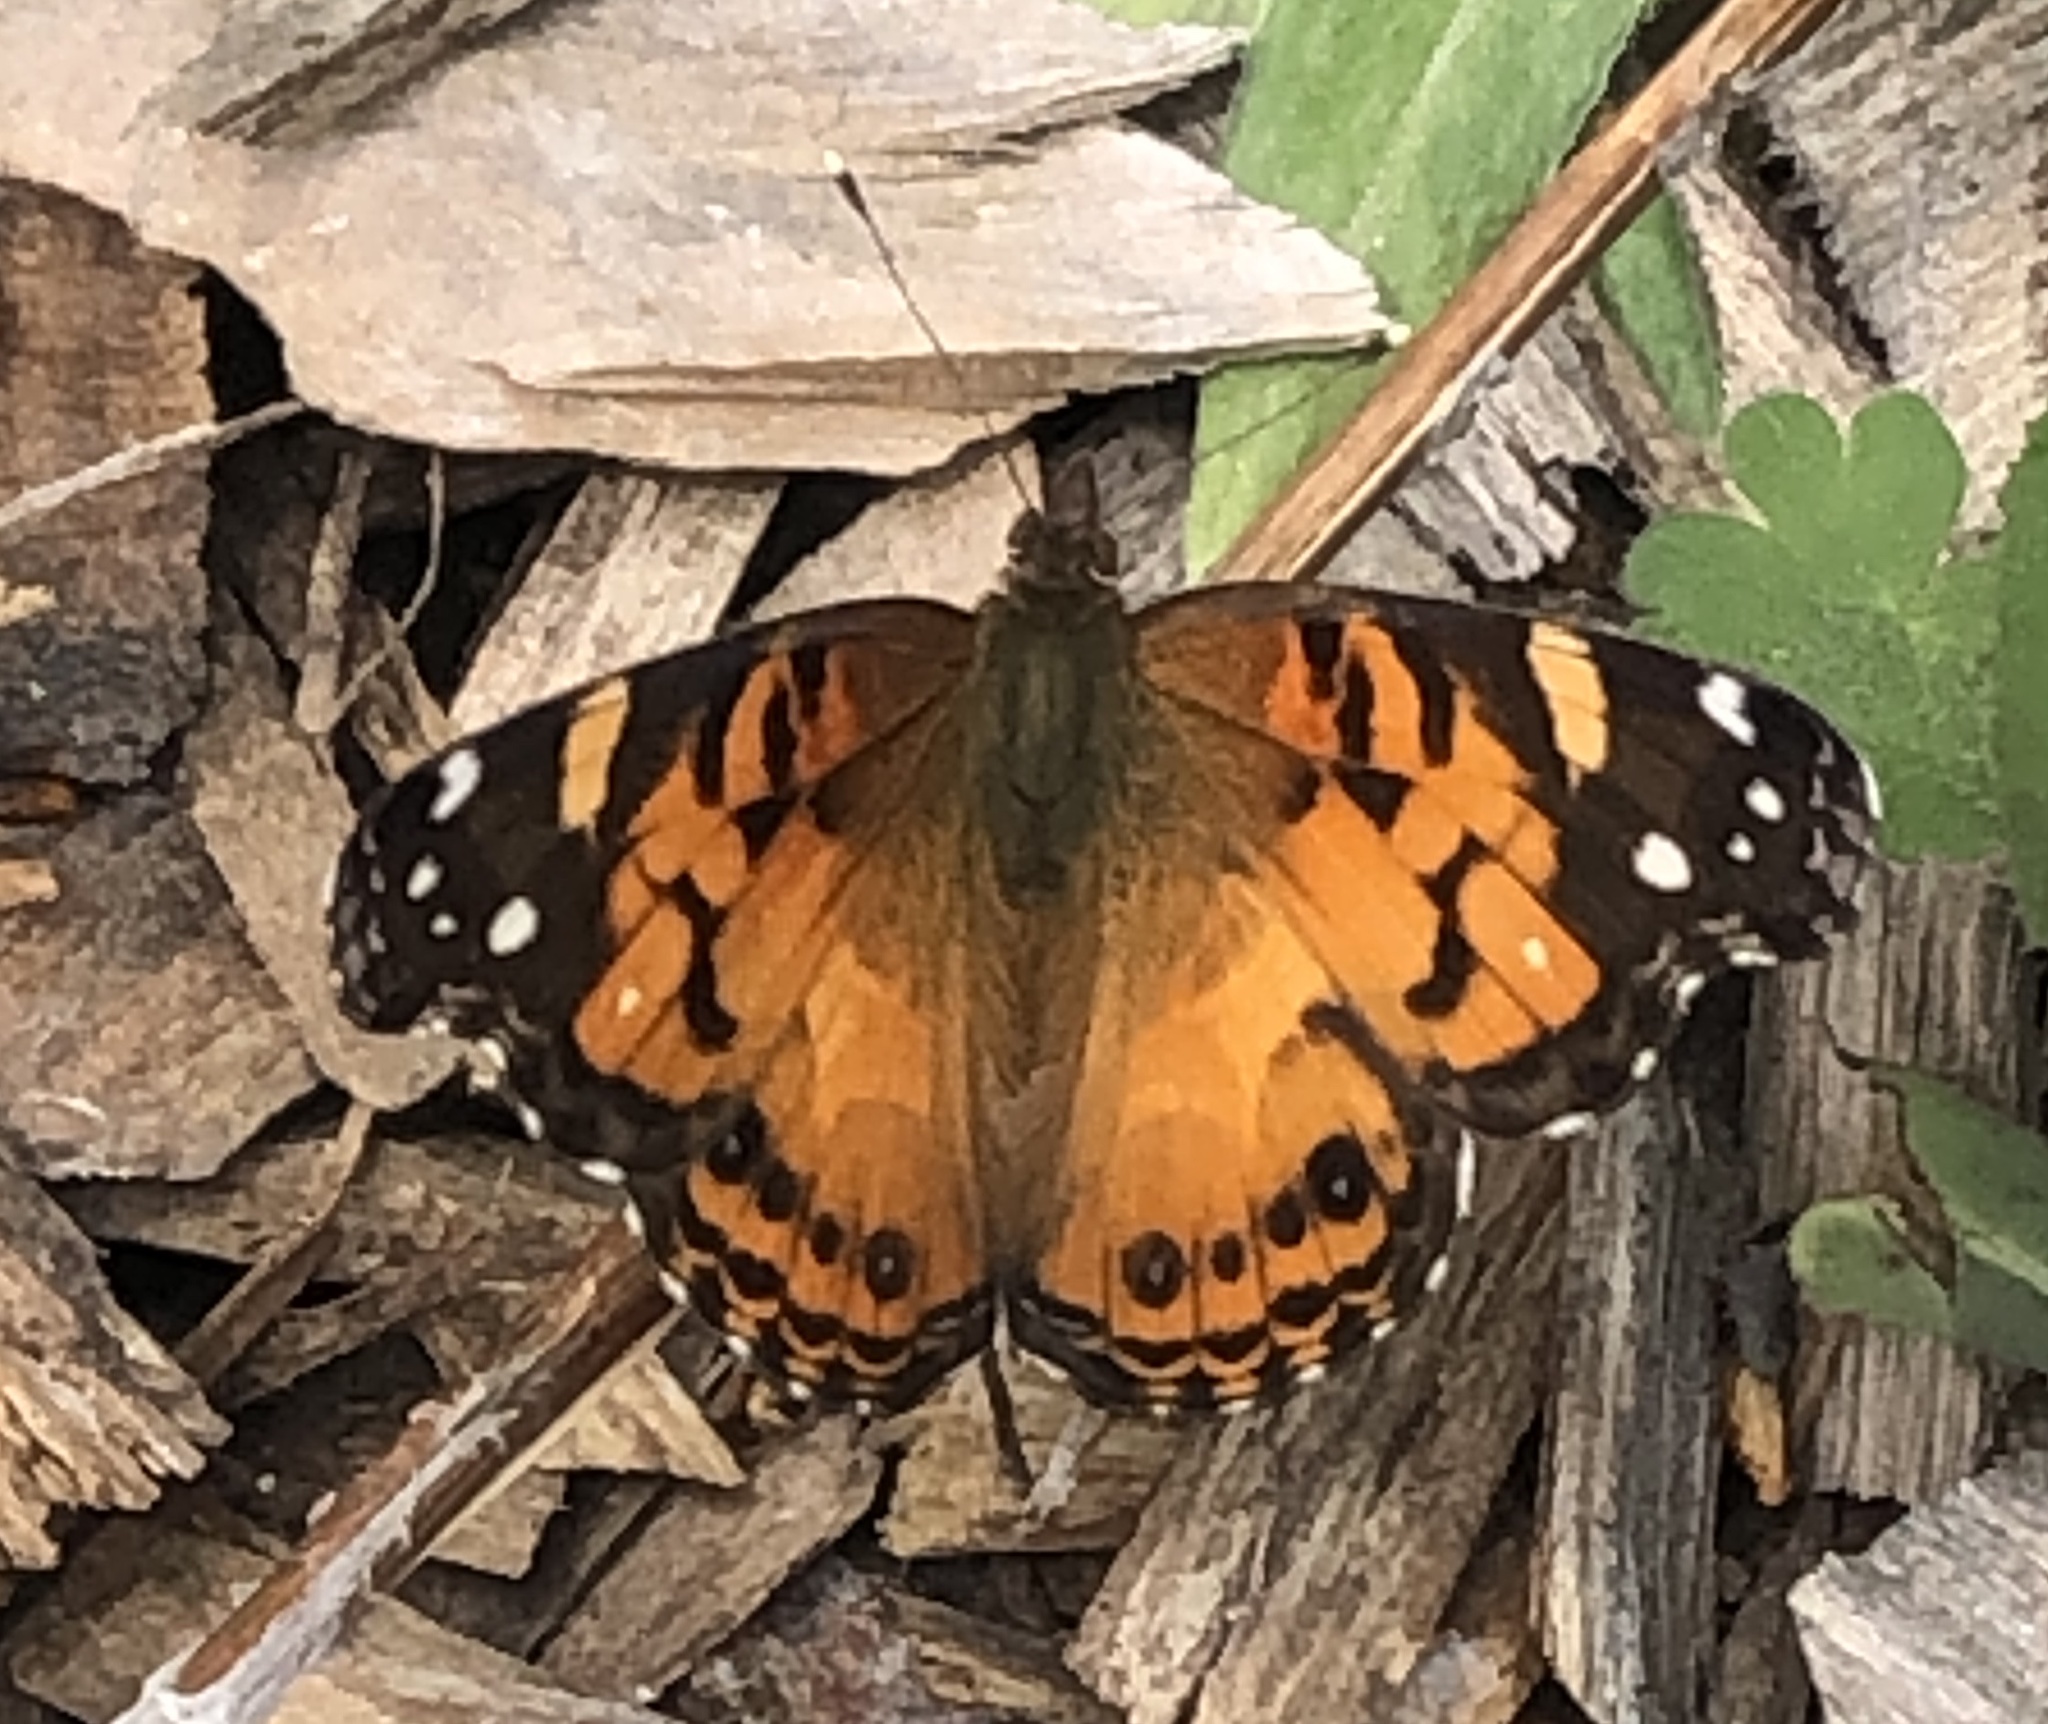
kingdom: Animalia
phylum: Arthropoda
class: Insecta
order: Lepidoptera
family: Nymphalidae
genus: Vanessa
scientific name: Vanessa virginiensis
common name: American lady
